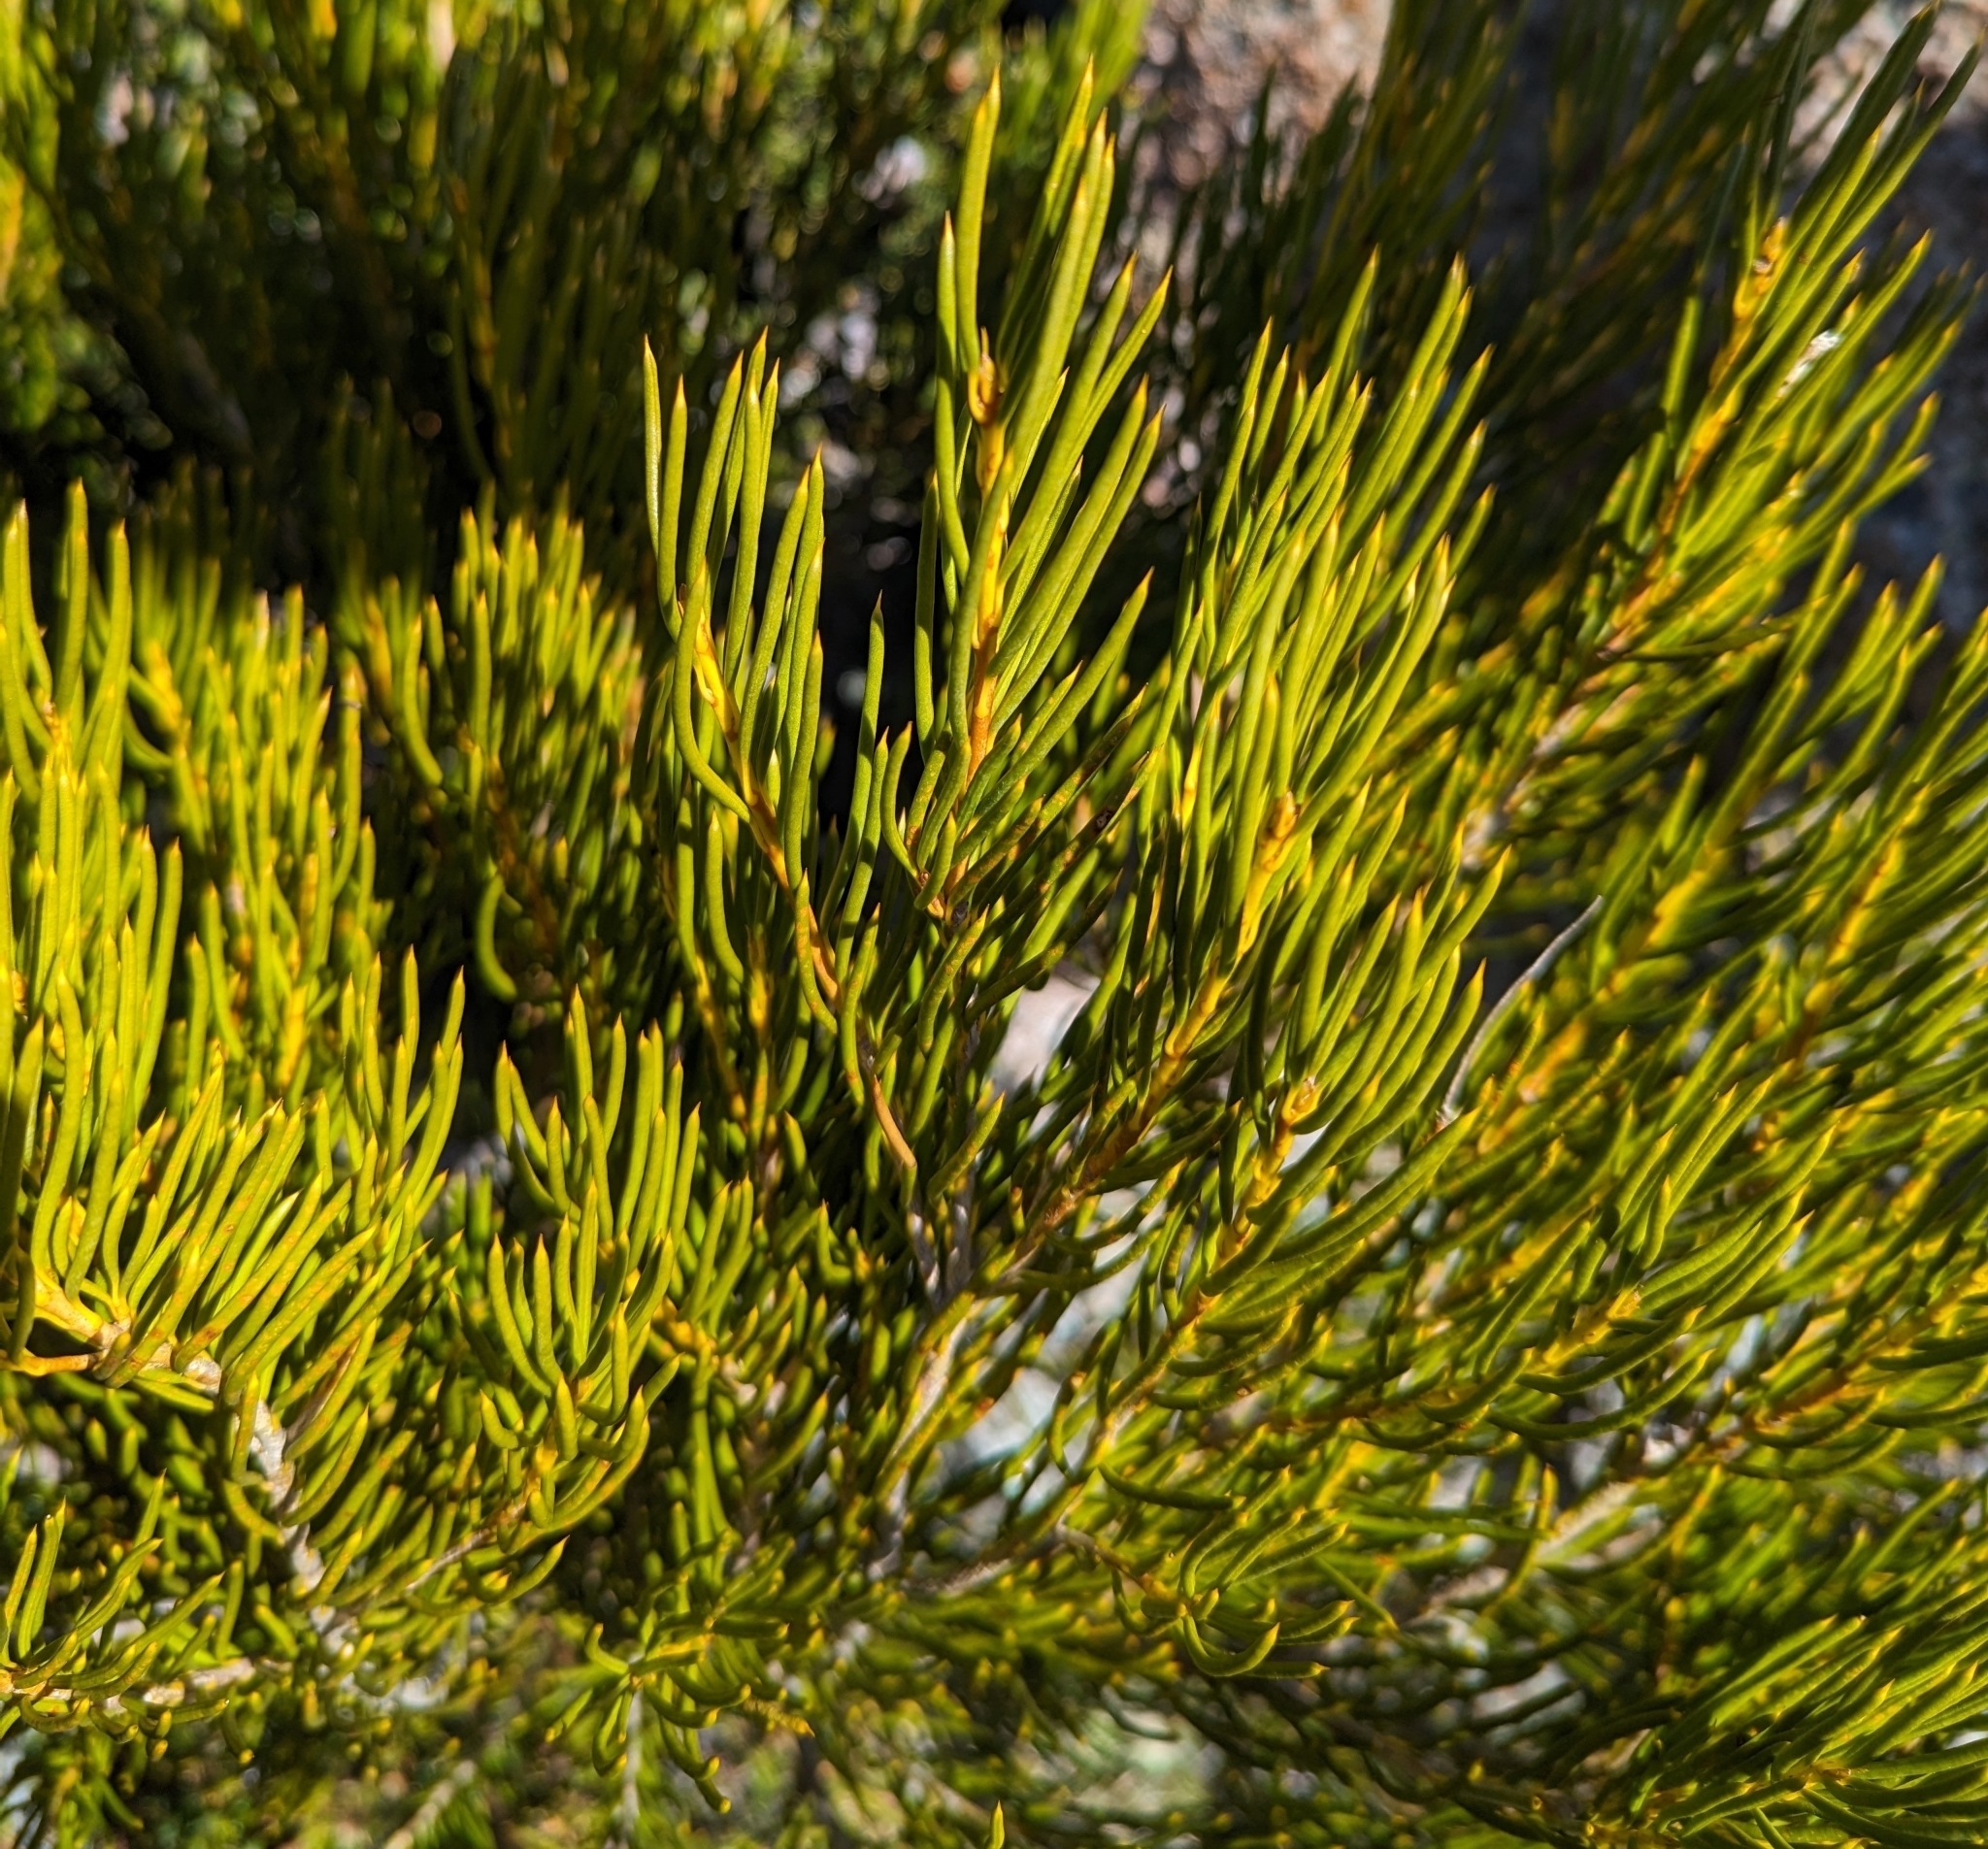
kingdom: Plantae
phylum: Tracheophyta
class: Magnoliopsida
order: Proteales
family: Proteaceae
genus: Orites
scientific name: Orites acicularis
